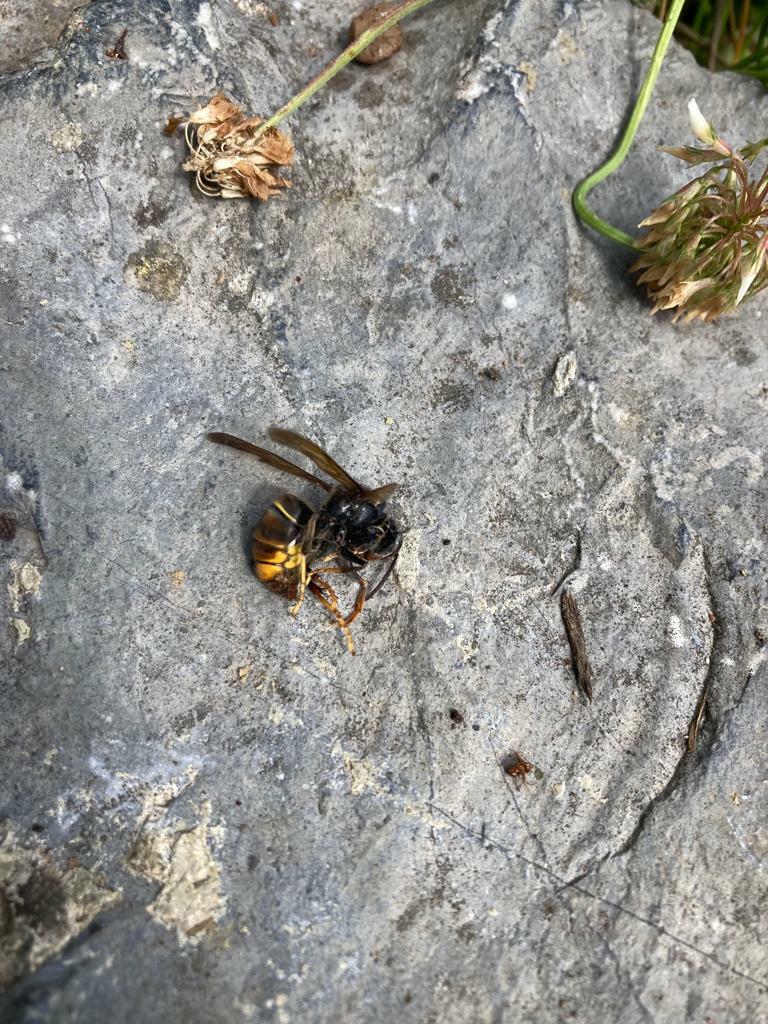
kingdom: Animalia
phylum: Arthropoda
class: Insecta
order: Hymenoptera
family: Vespidae
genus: Vespa
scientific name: Vespa velutina
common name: Asian hornet
